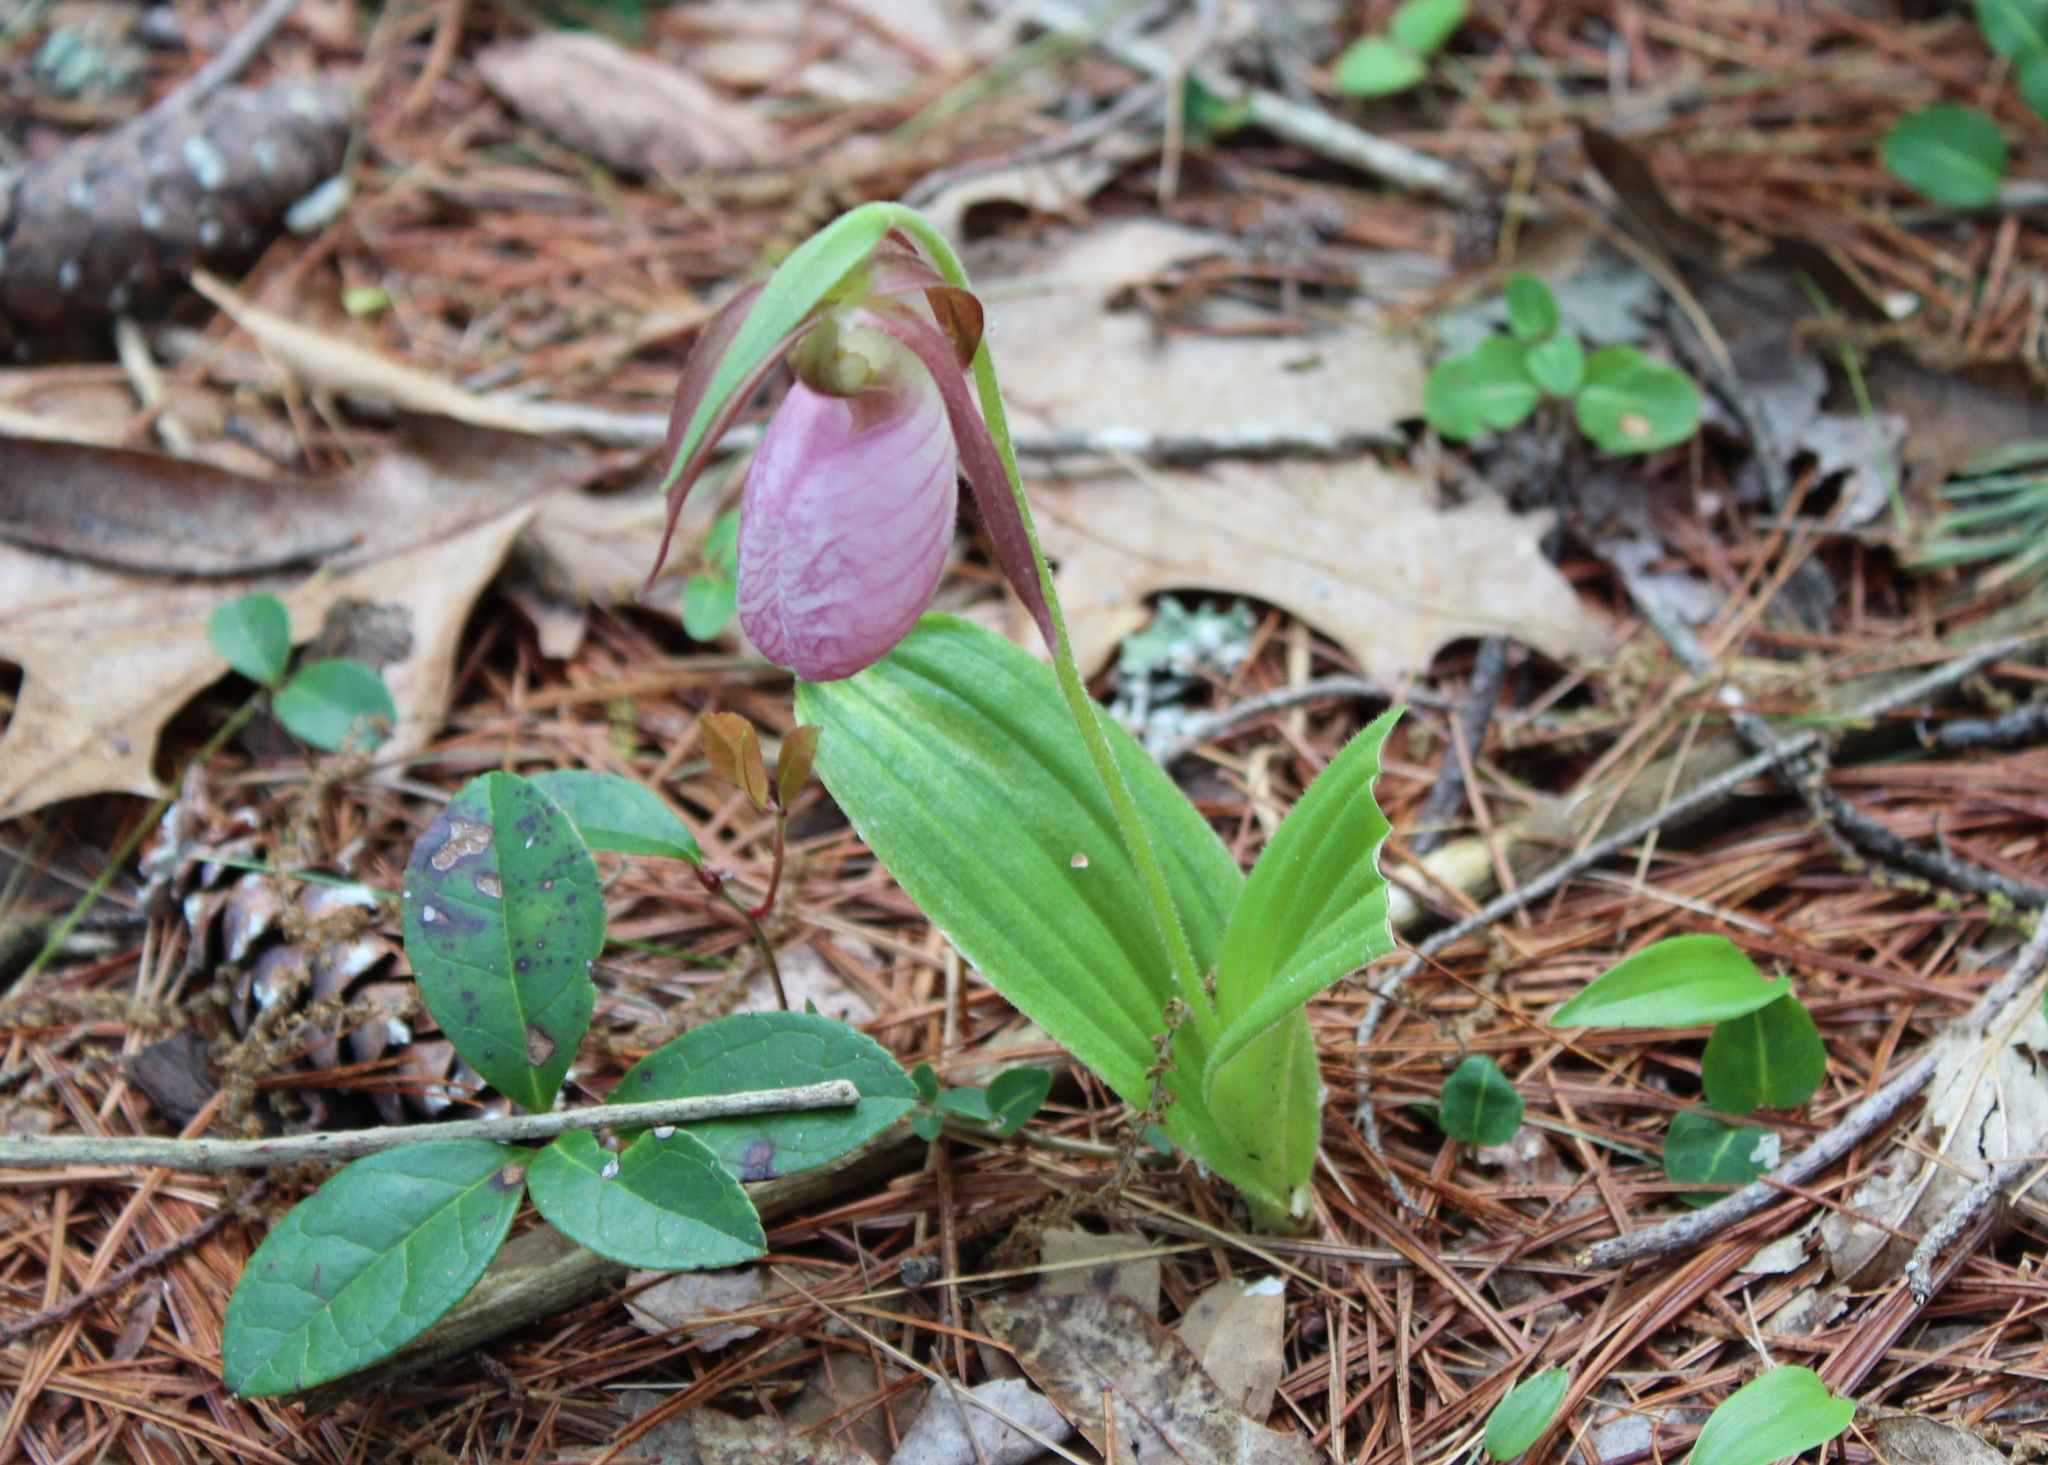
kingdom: Plantae
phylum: Tracheophyta
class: Liliopsida
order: Asparagales
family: Orchidaceae
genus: Cypripedium
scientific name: Cypripedium acaule
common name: Pink lady's-slipper
